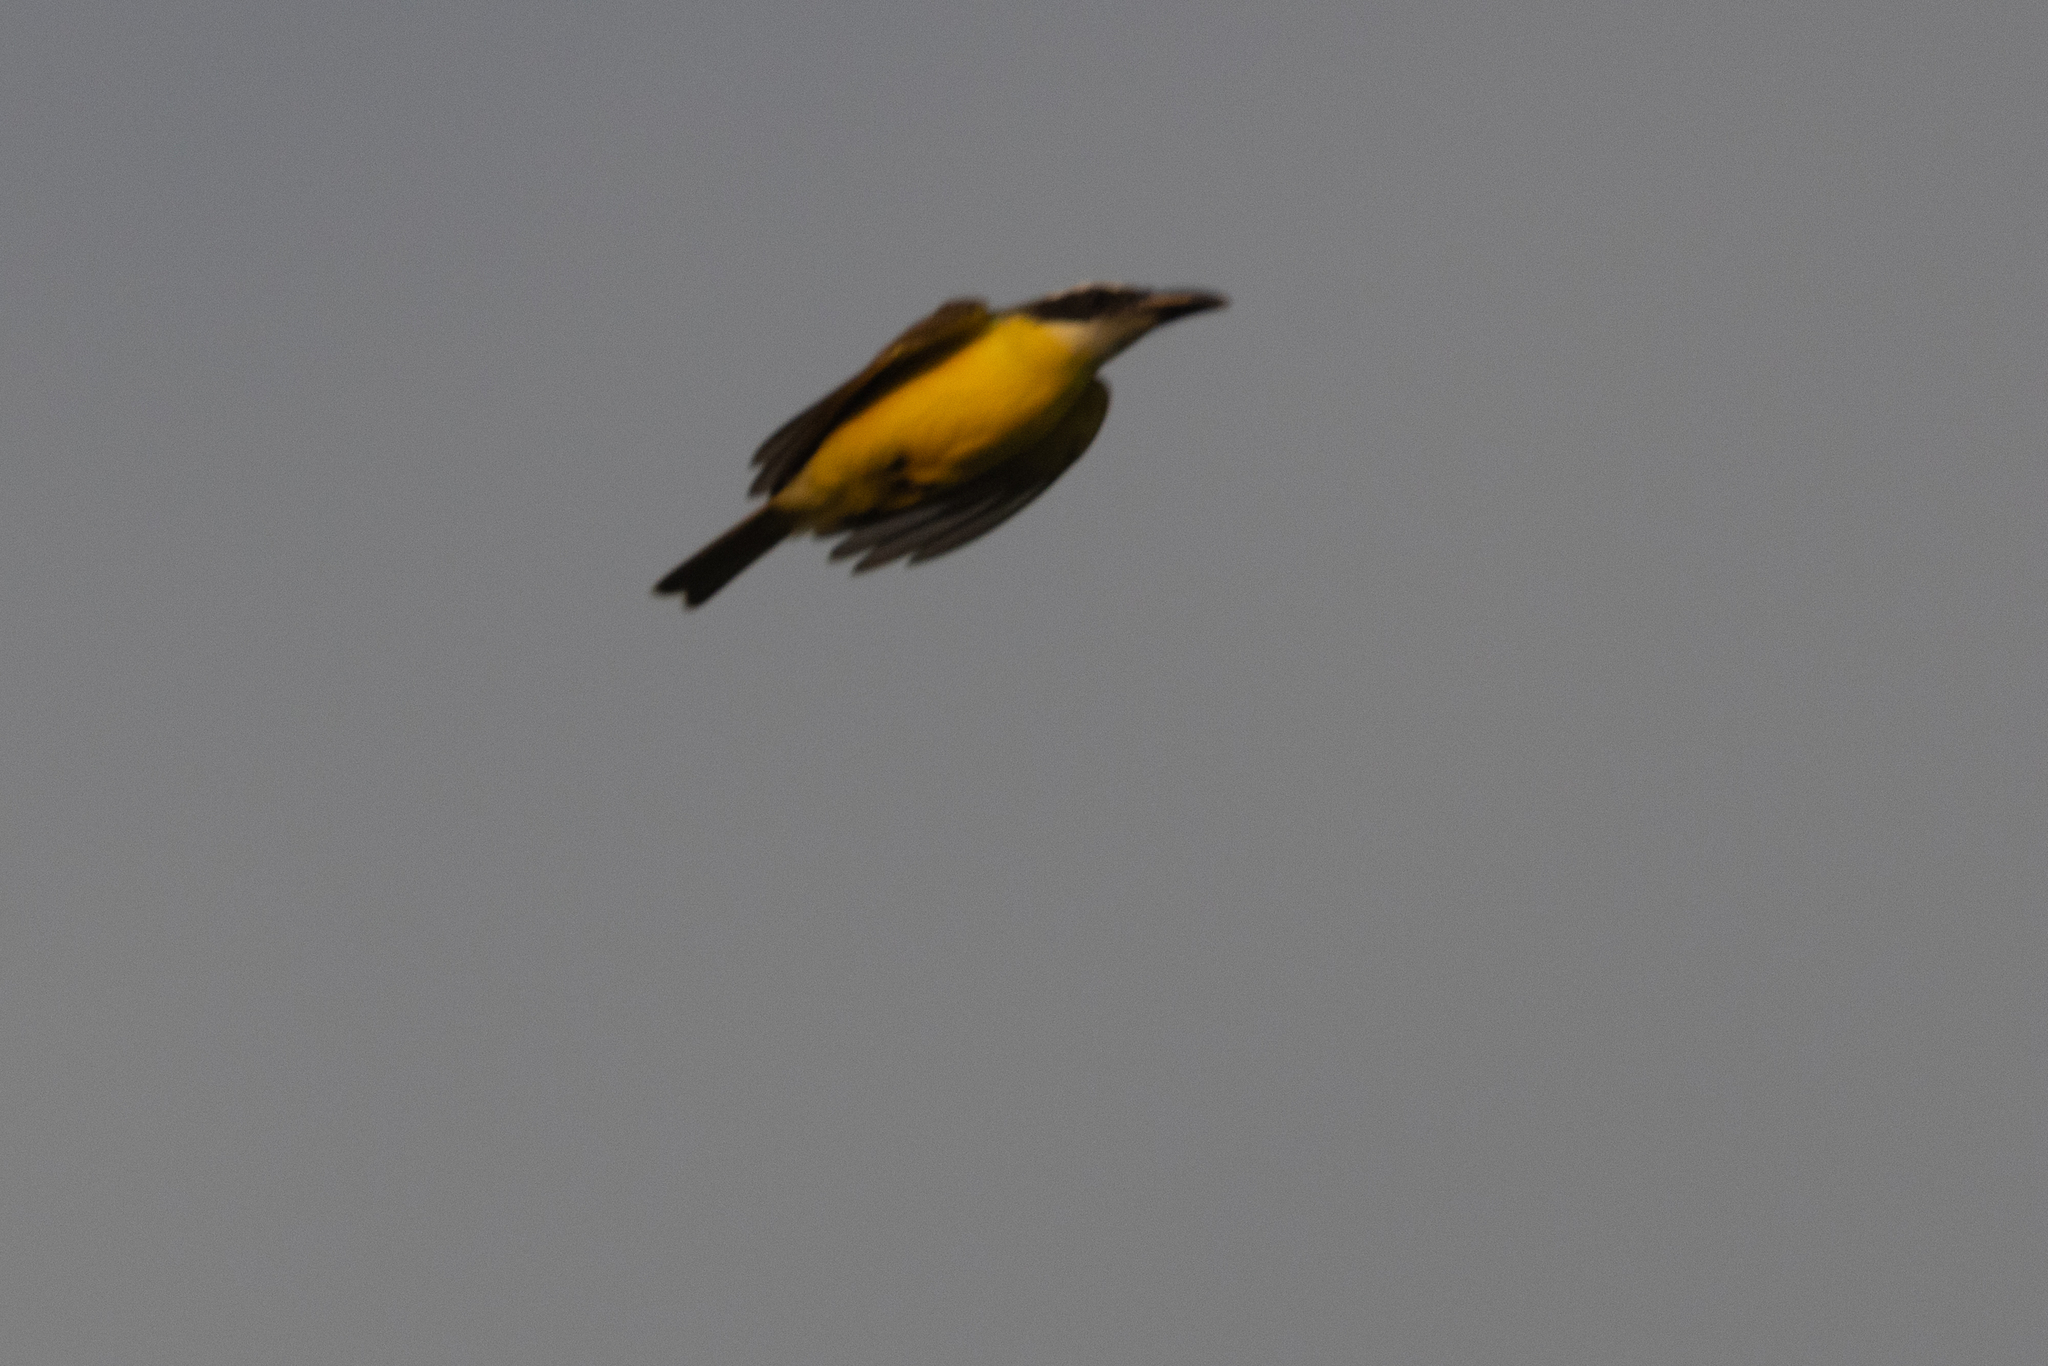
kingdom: Animalia
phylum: Chordata
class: Aves
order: Passeriformes
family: Tyrannidae
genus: Megarynchus
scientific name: Megarynchus pitangua
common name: Boat-billed flycatcher
